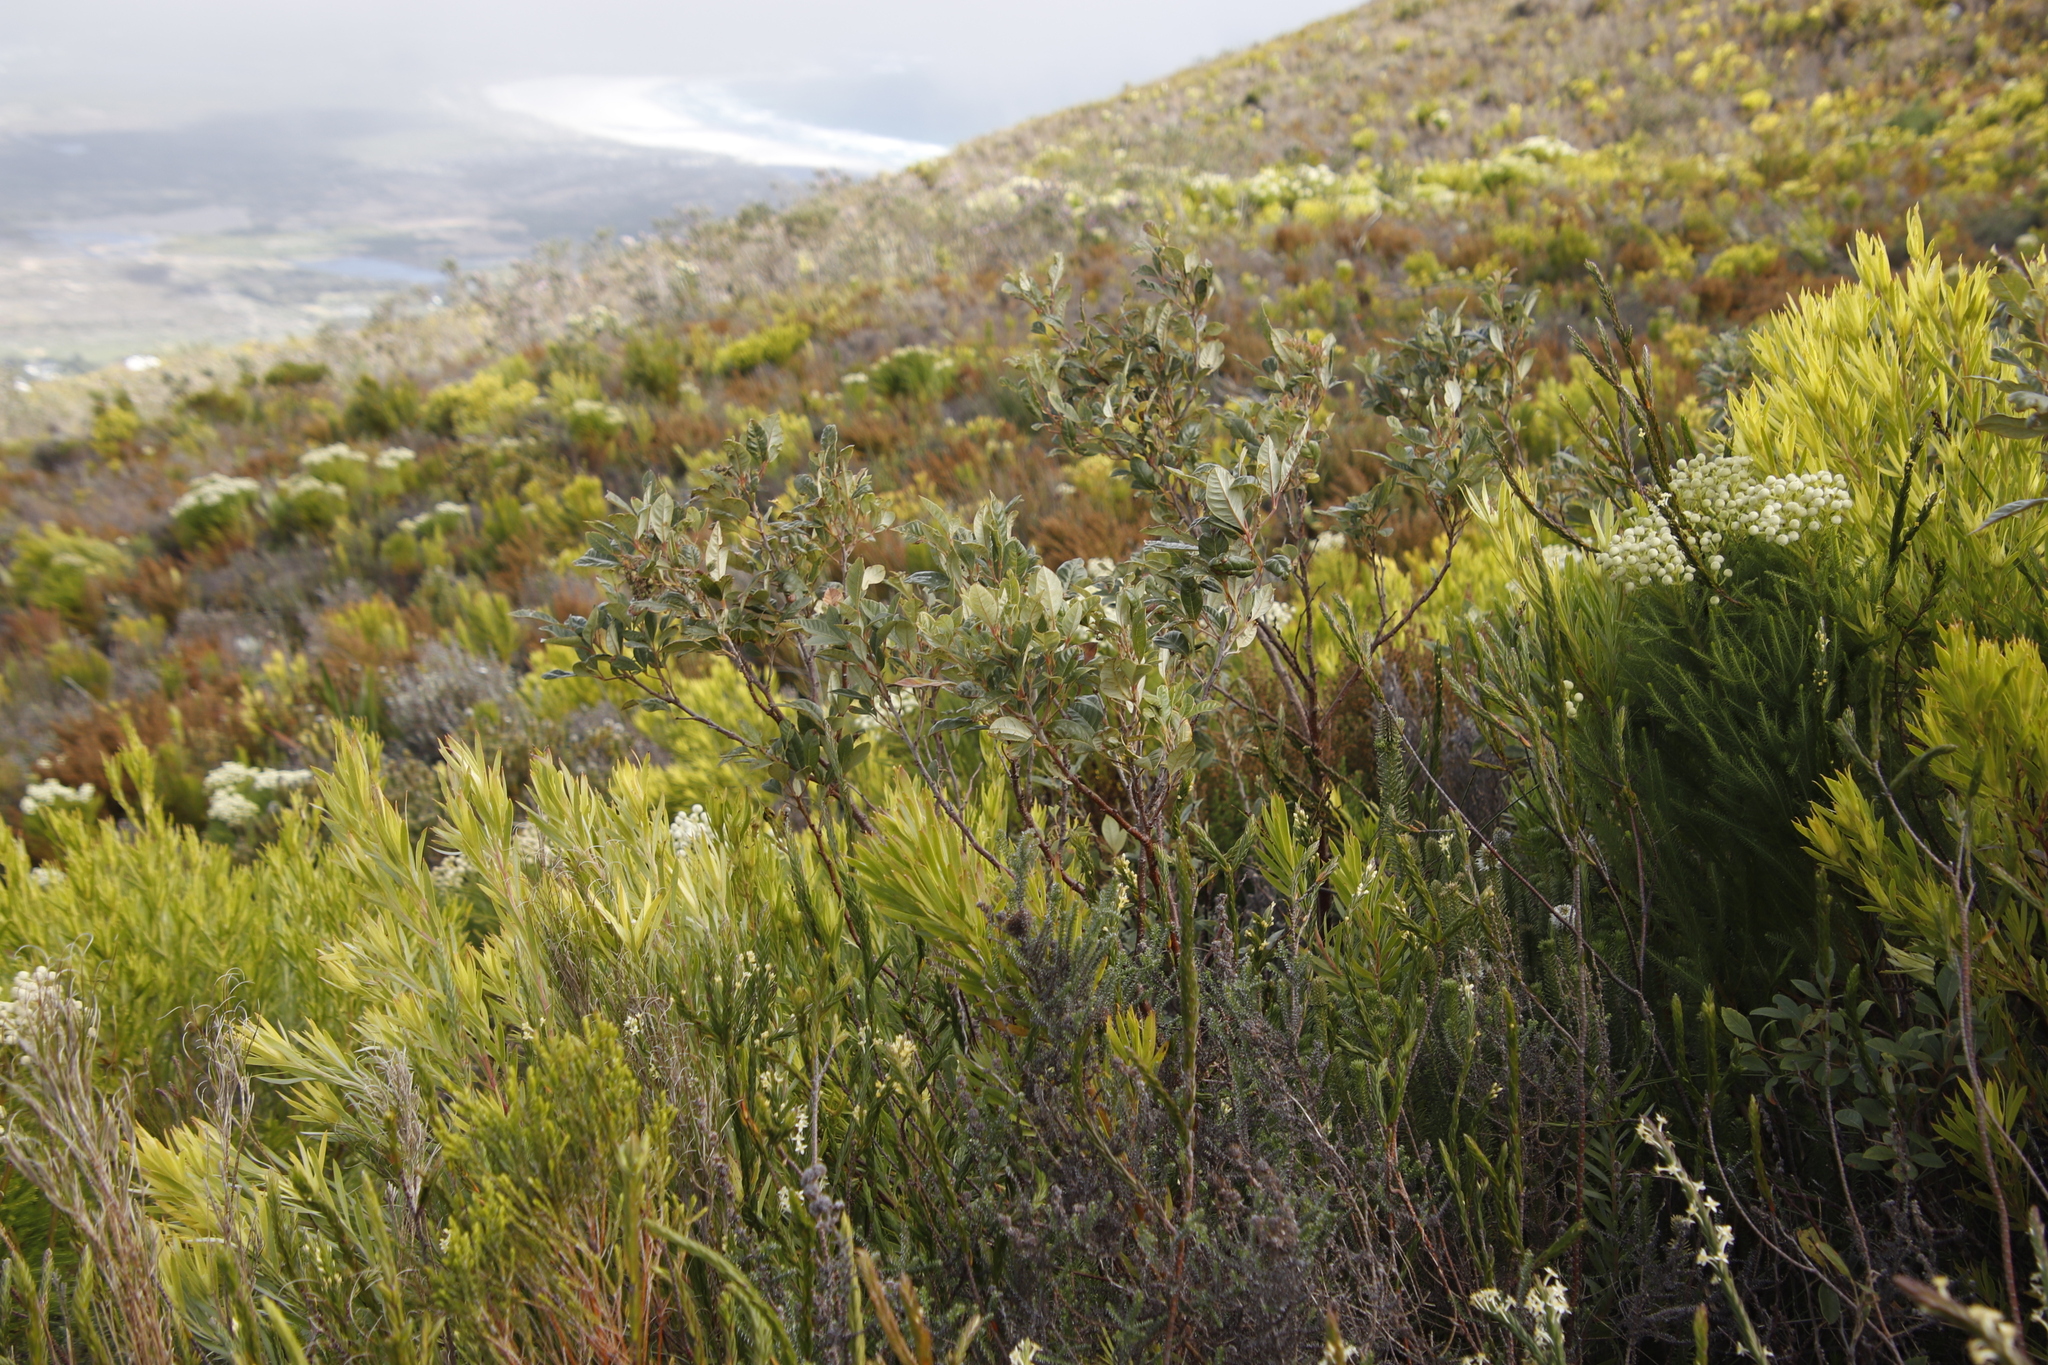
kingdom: Plantae
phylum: Tracheophyta
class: Magnoliopsida
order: Sapindales
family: Anacardiaceae
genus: Searsia
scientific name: Searsia tomentosa
